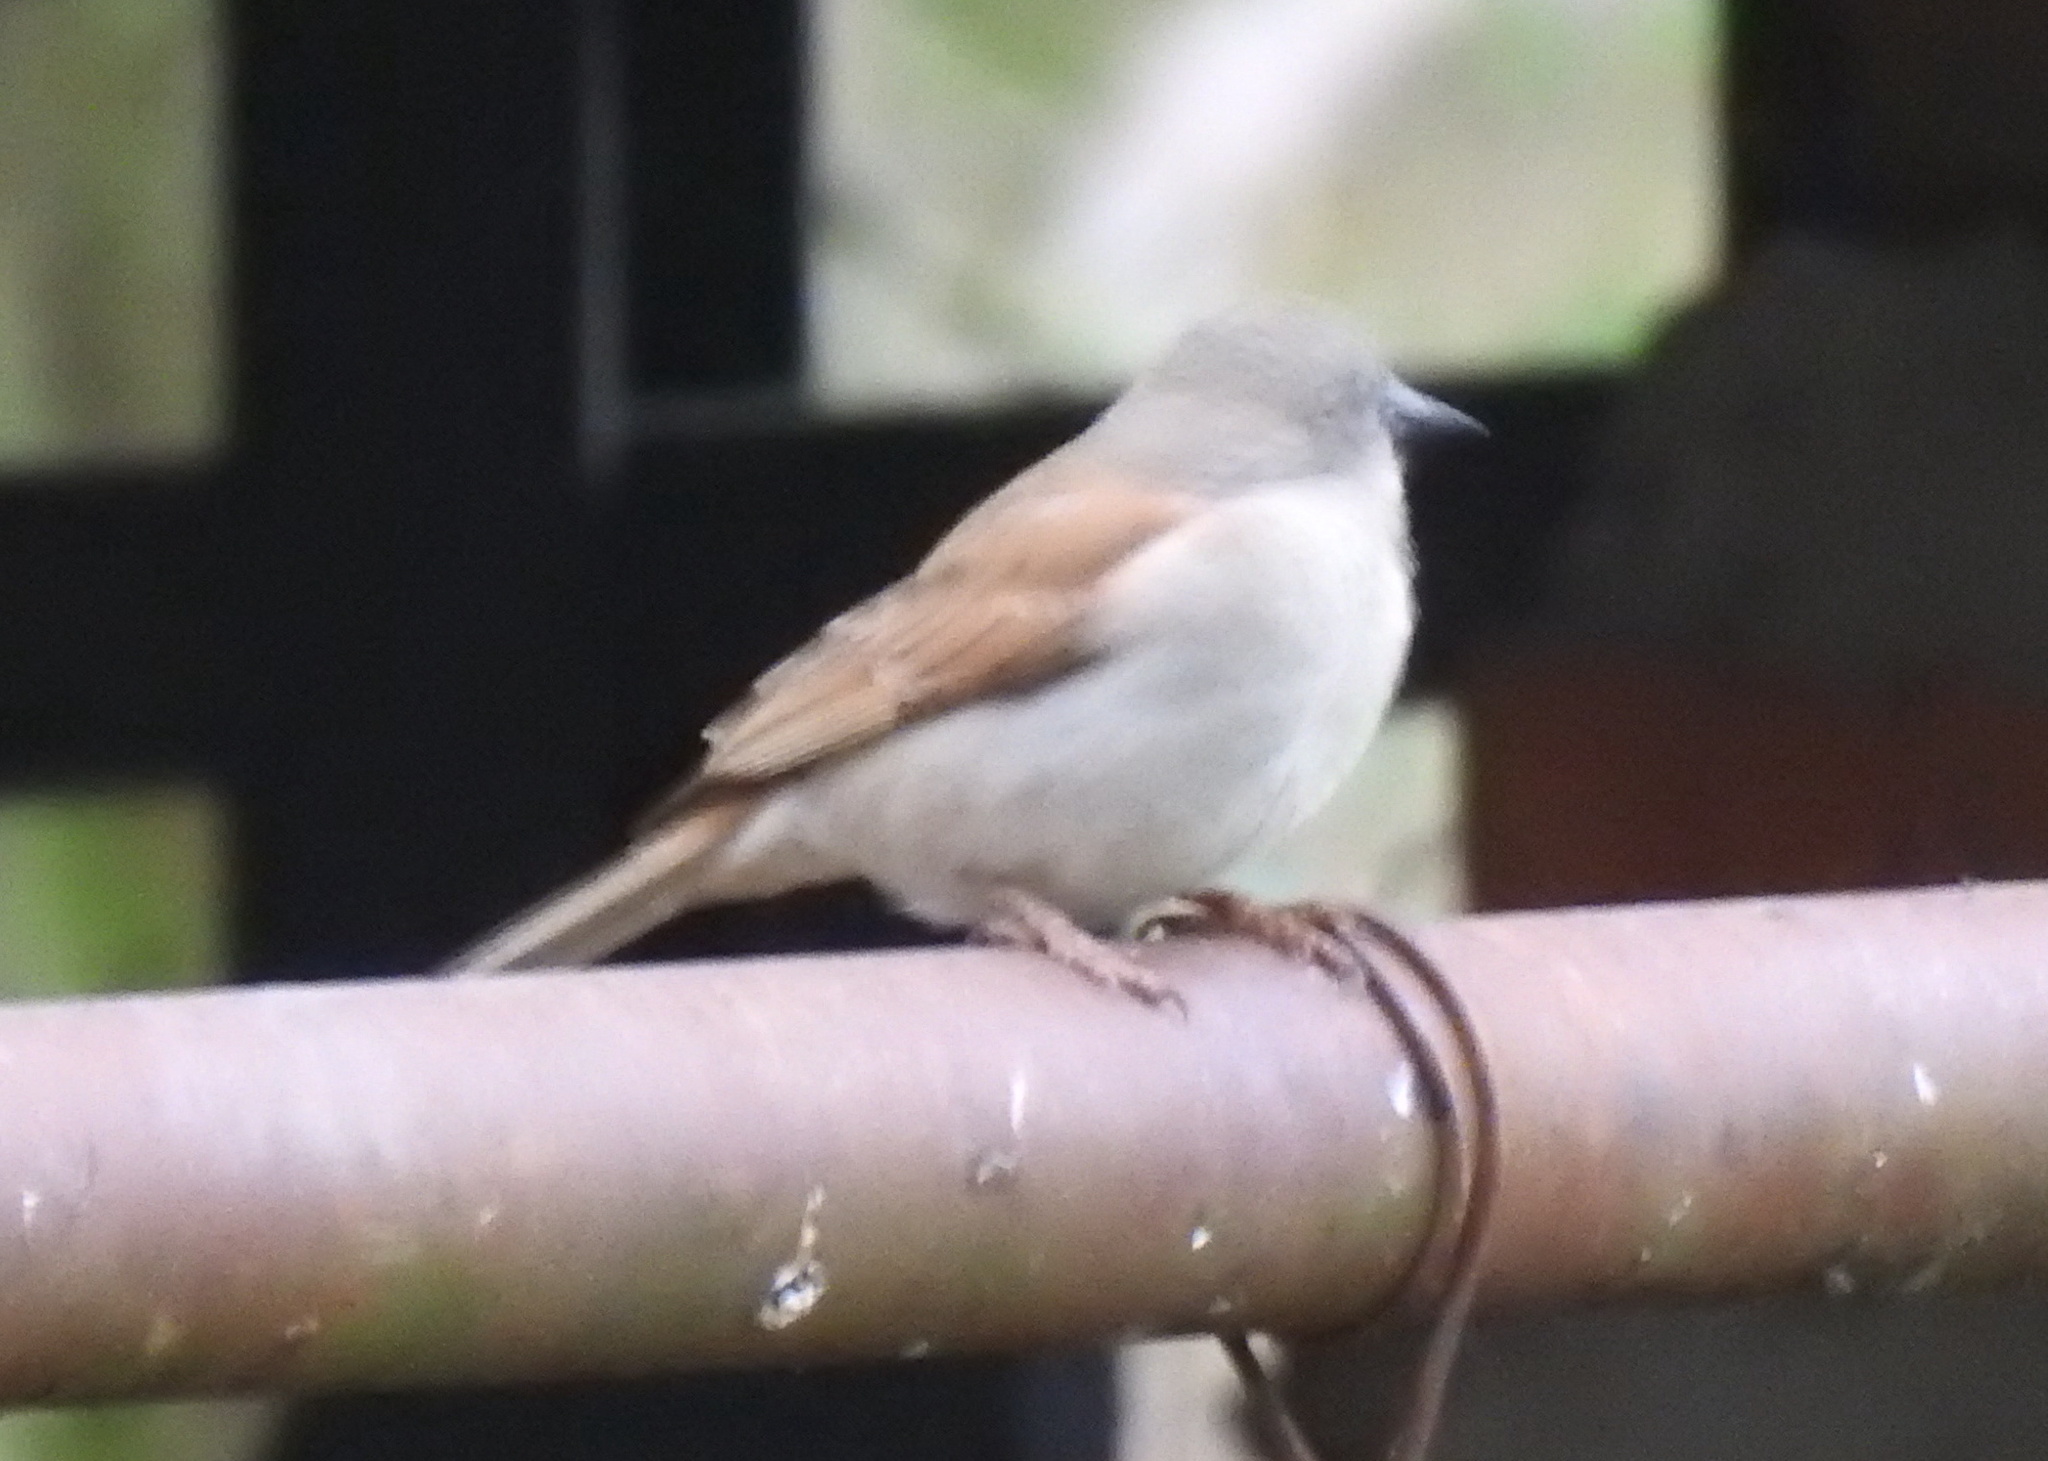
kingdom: Animalia
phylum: Chordata
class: Aves
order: Passeriformes
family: Passeridae
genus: Passer
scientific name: Passer diffusus
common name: Southern grey-headed sparrow
